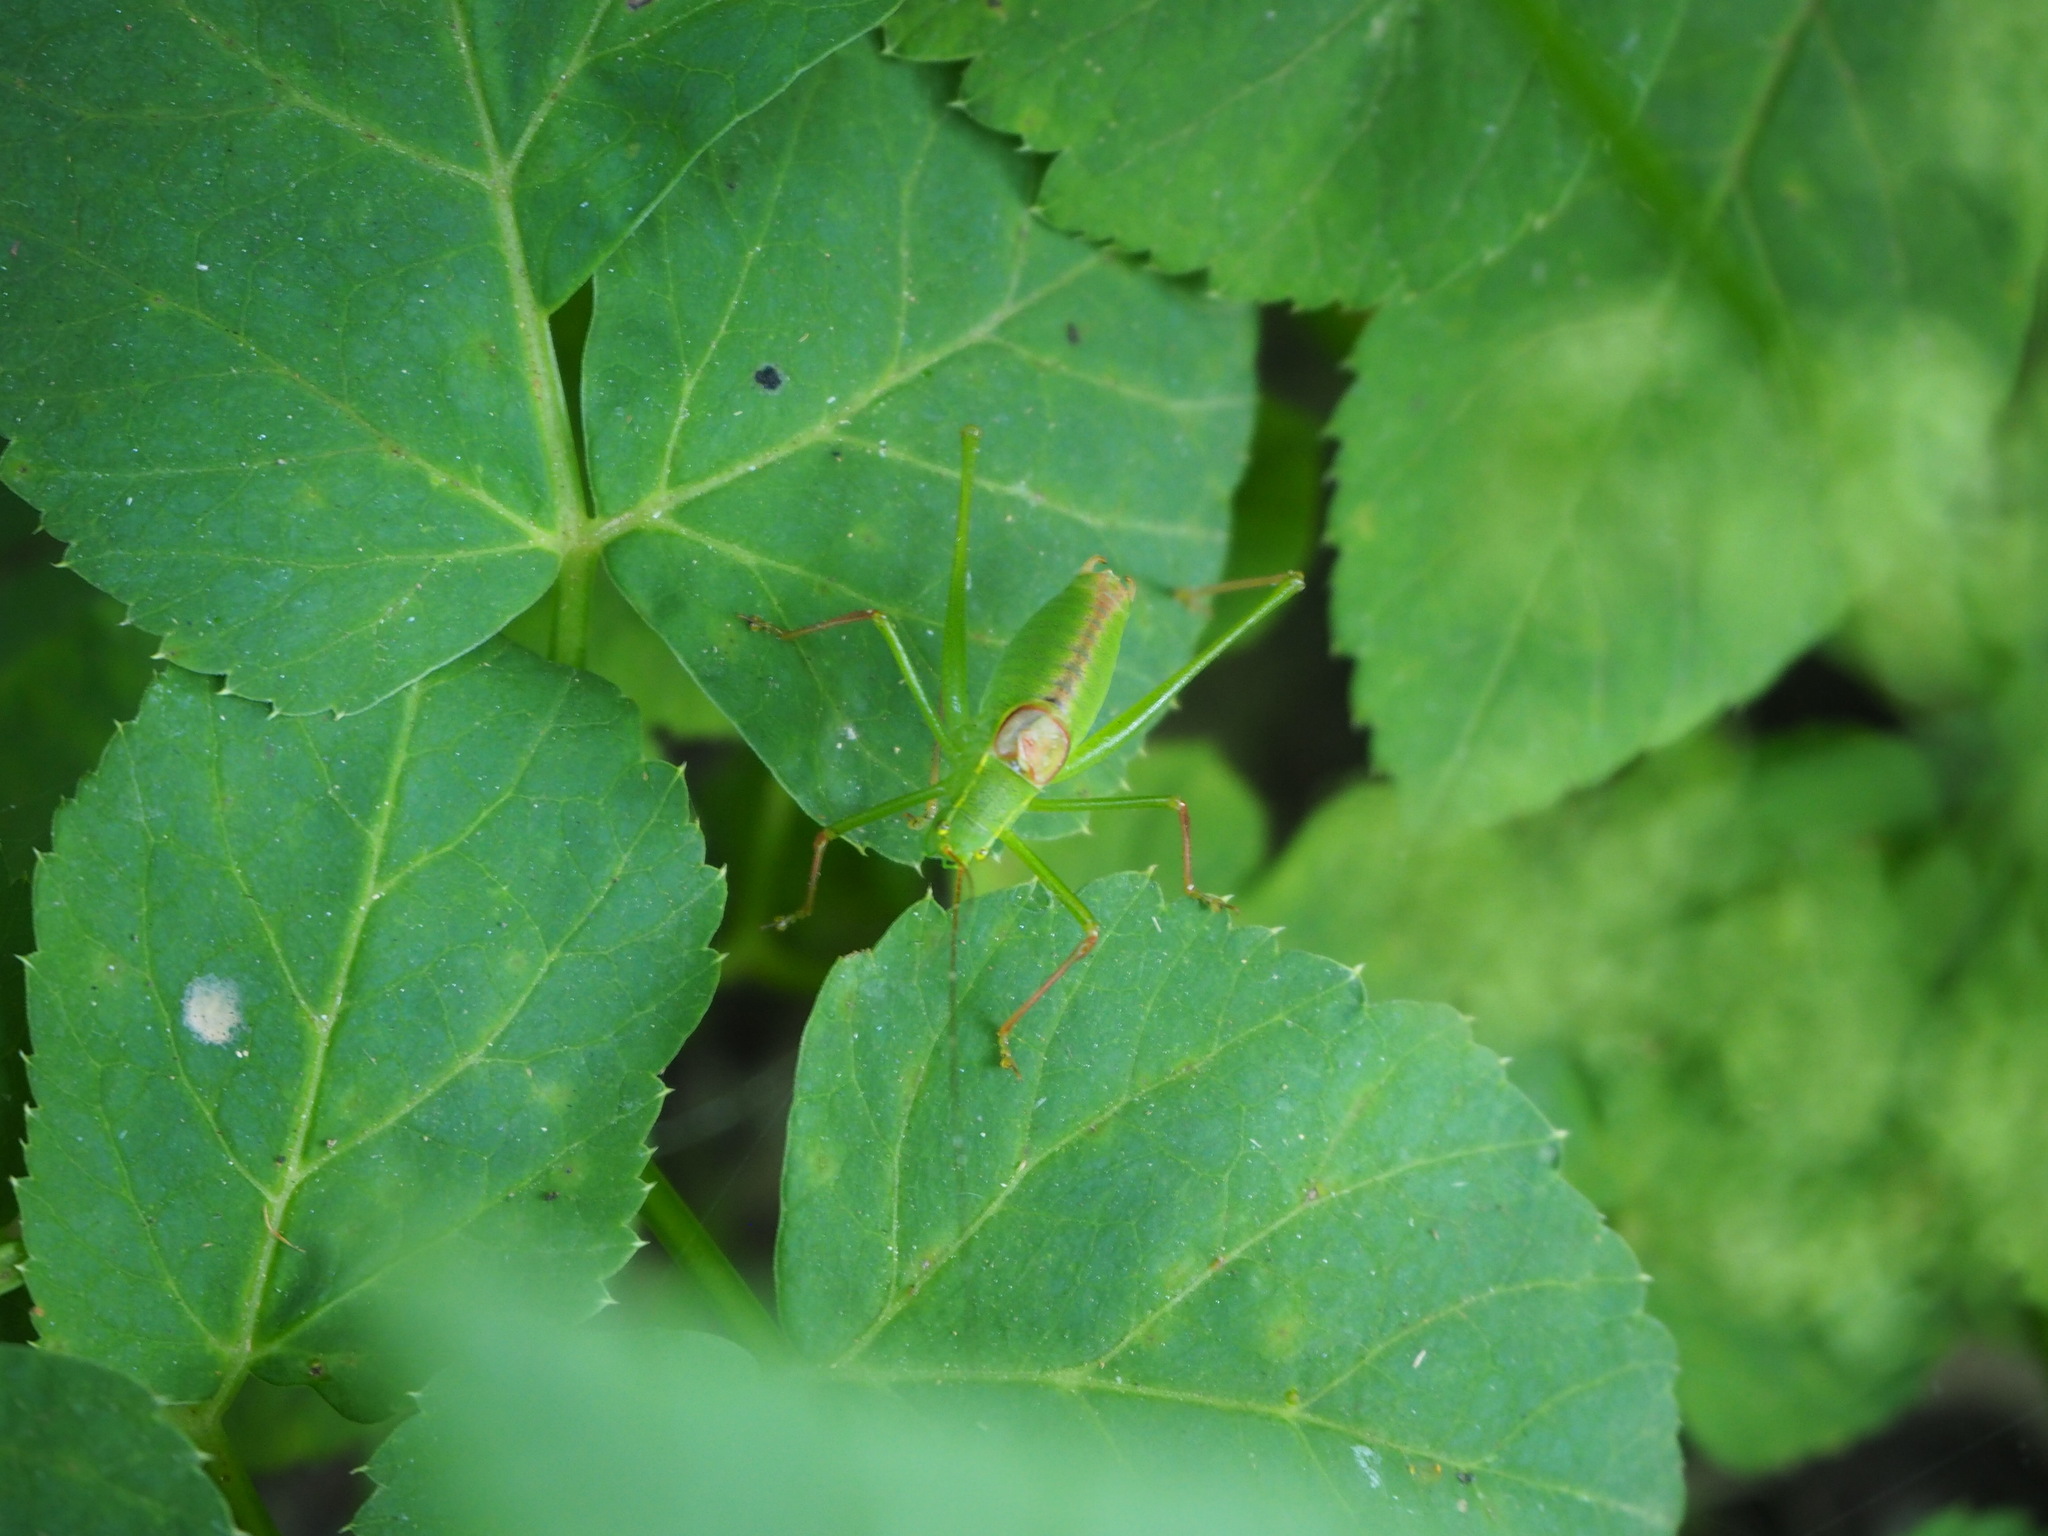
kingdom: Animalia
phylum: Arthropoda
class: Insecta
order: Orthoptera
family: Tettigoniidae
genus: Leptophyes
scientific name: Leptophyes laticauda
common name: Long-tailed speckled bush-cricket
